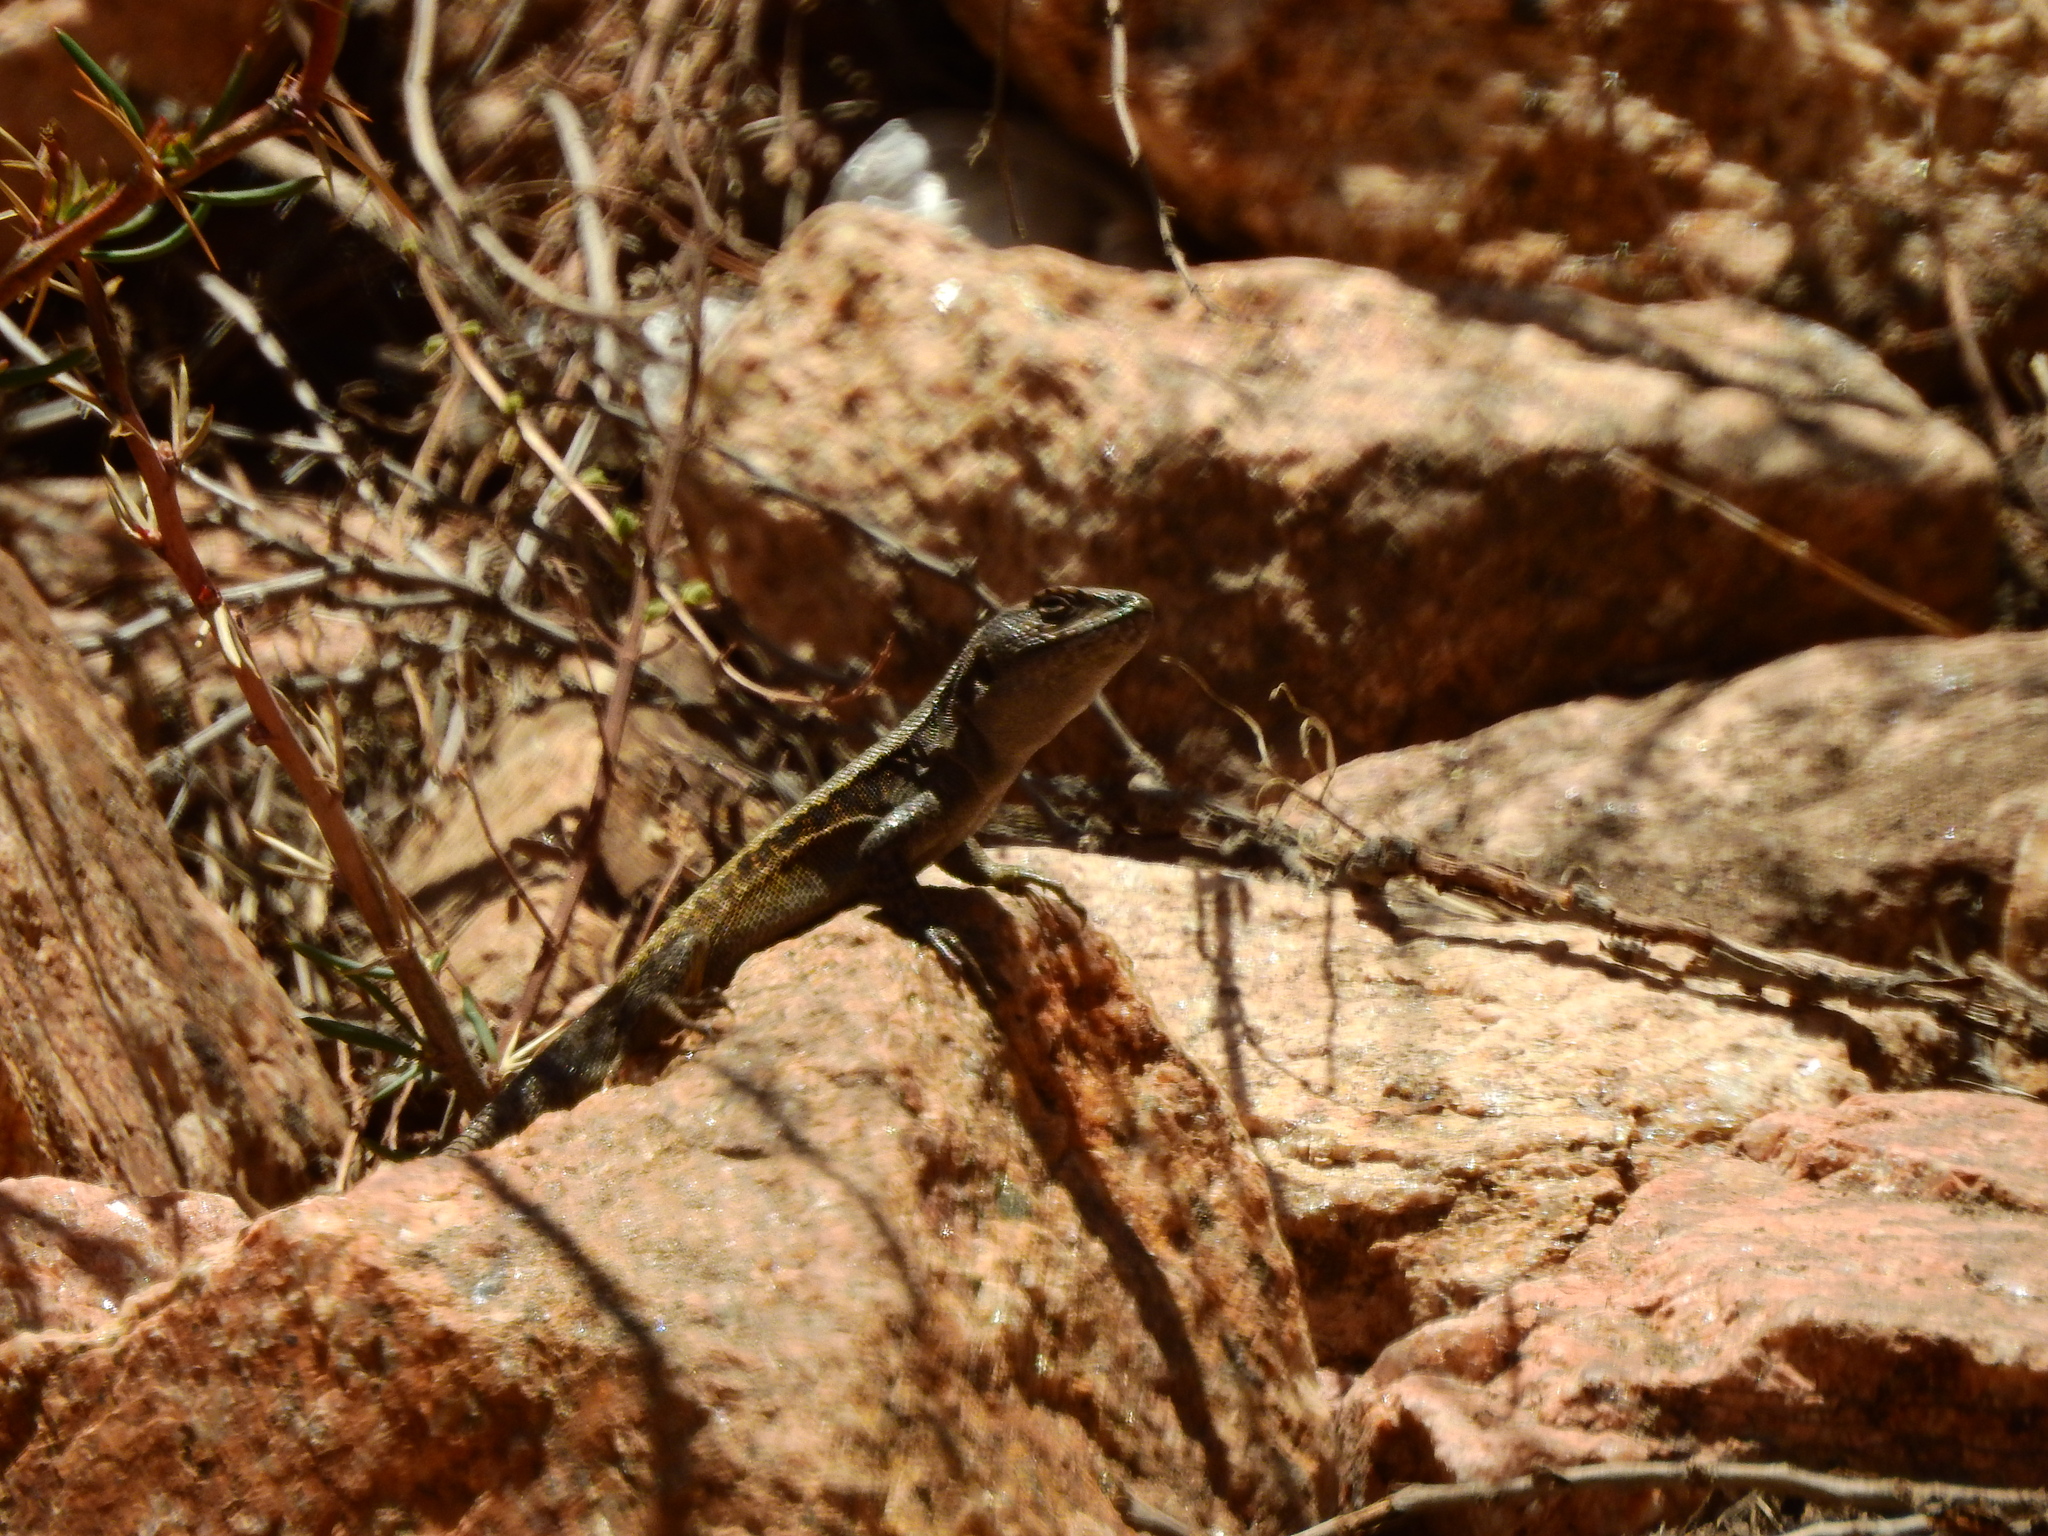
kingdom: Animalia
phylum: Chordata
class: Squamata
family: Liolaemidae
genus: Liolaemus
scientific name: Liolaemus parvus
